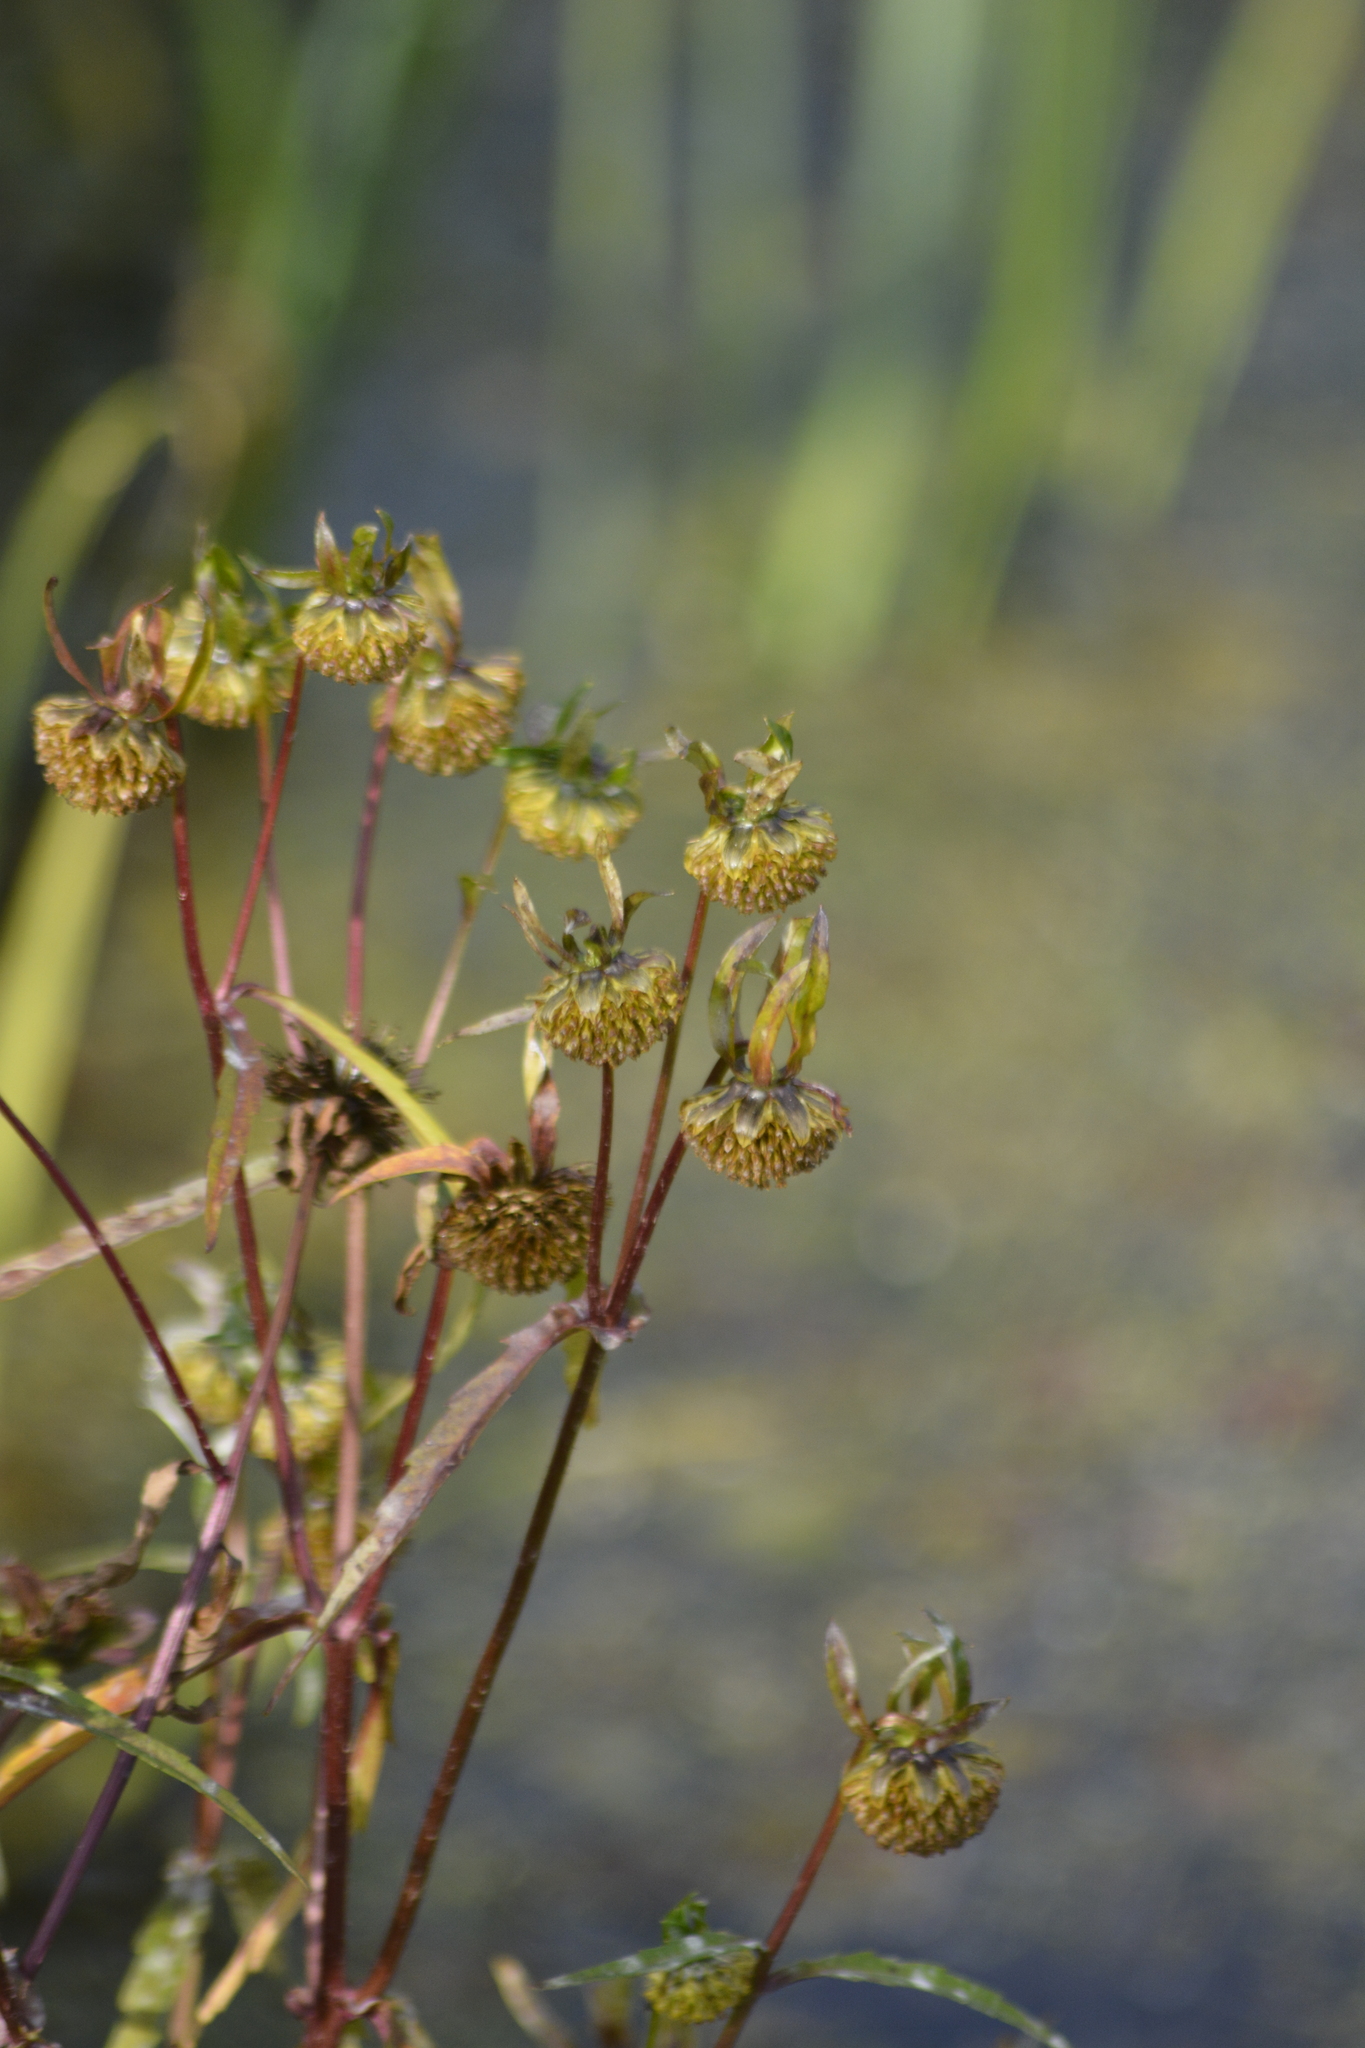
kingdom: Plantae
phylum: Tracheophyta
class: Magnoliopsida
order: Asterales
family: Asteraceae
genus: Bidens
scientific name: Bidens cernua
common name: Nodding bur-marigold
